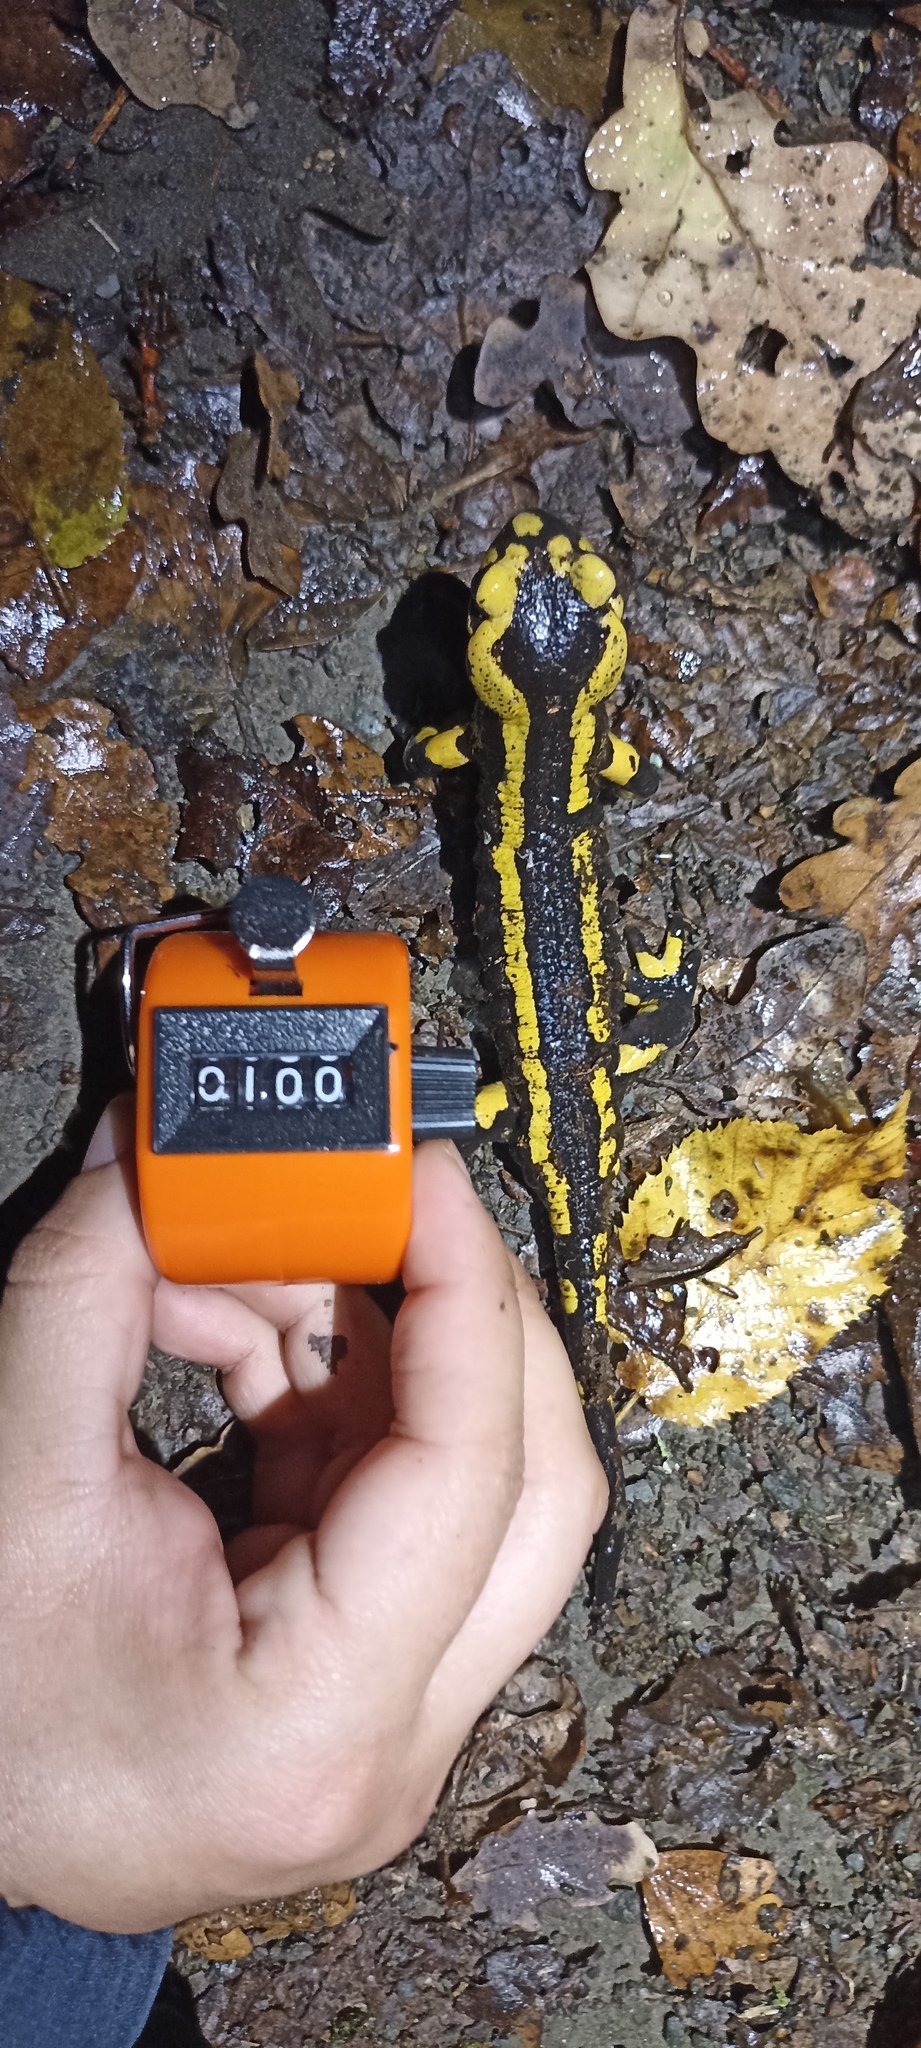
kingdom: Animalia
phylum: Chordata
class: Amphibia
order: Caudata
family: Salamandridae
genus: Salamandra
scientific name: Salamandra salamandra
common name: Fire salamander
